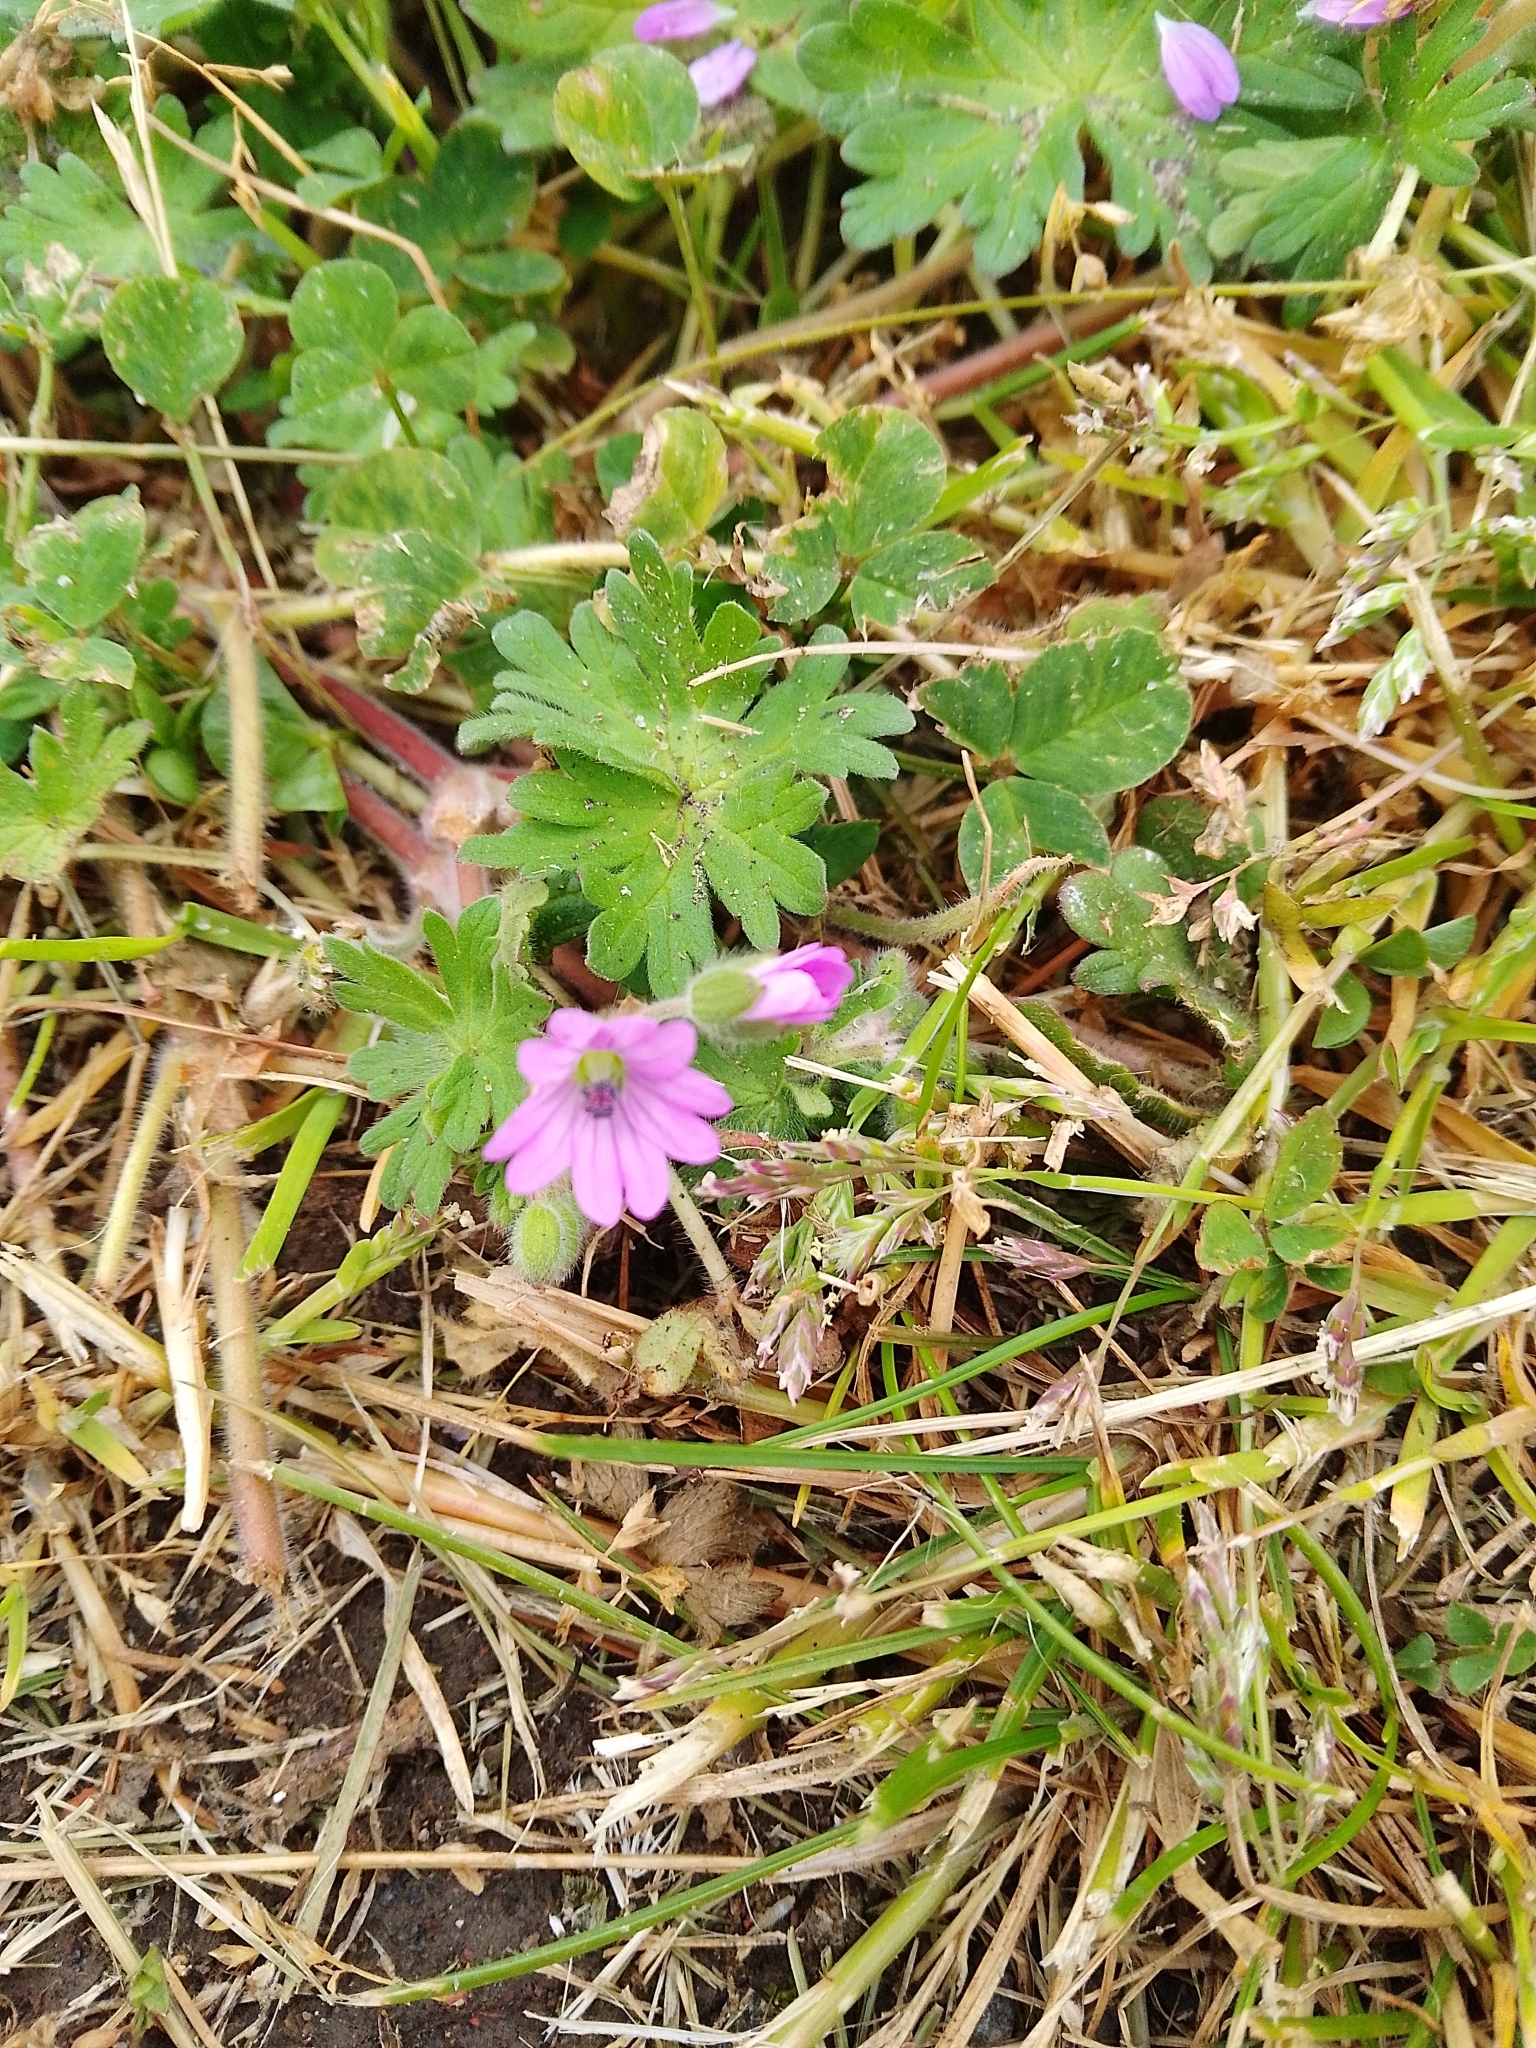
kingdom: Plantae
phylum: Tracheophyta
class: Magnoliopsida
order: Geraniales
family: Geraniaceae
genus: Geranium
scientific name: Geranium molle
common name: Dove's-foot crane's-bill
